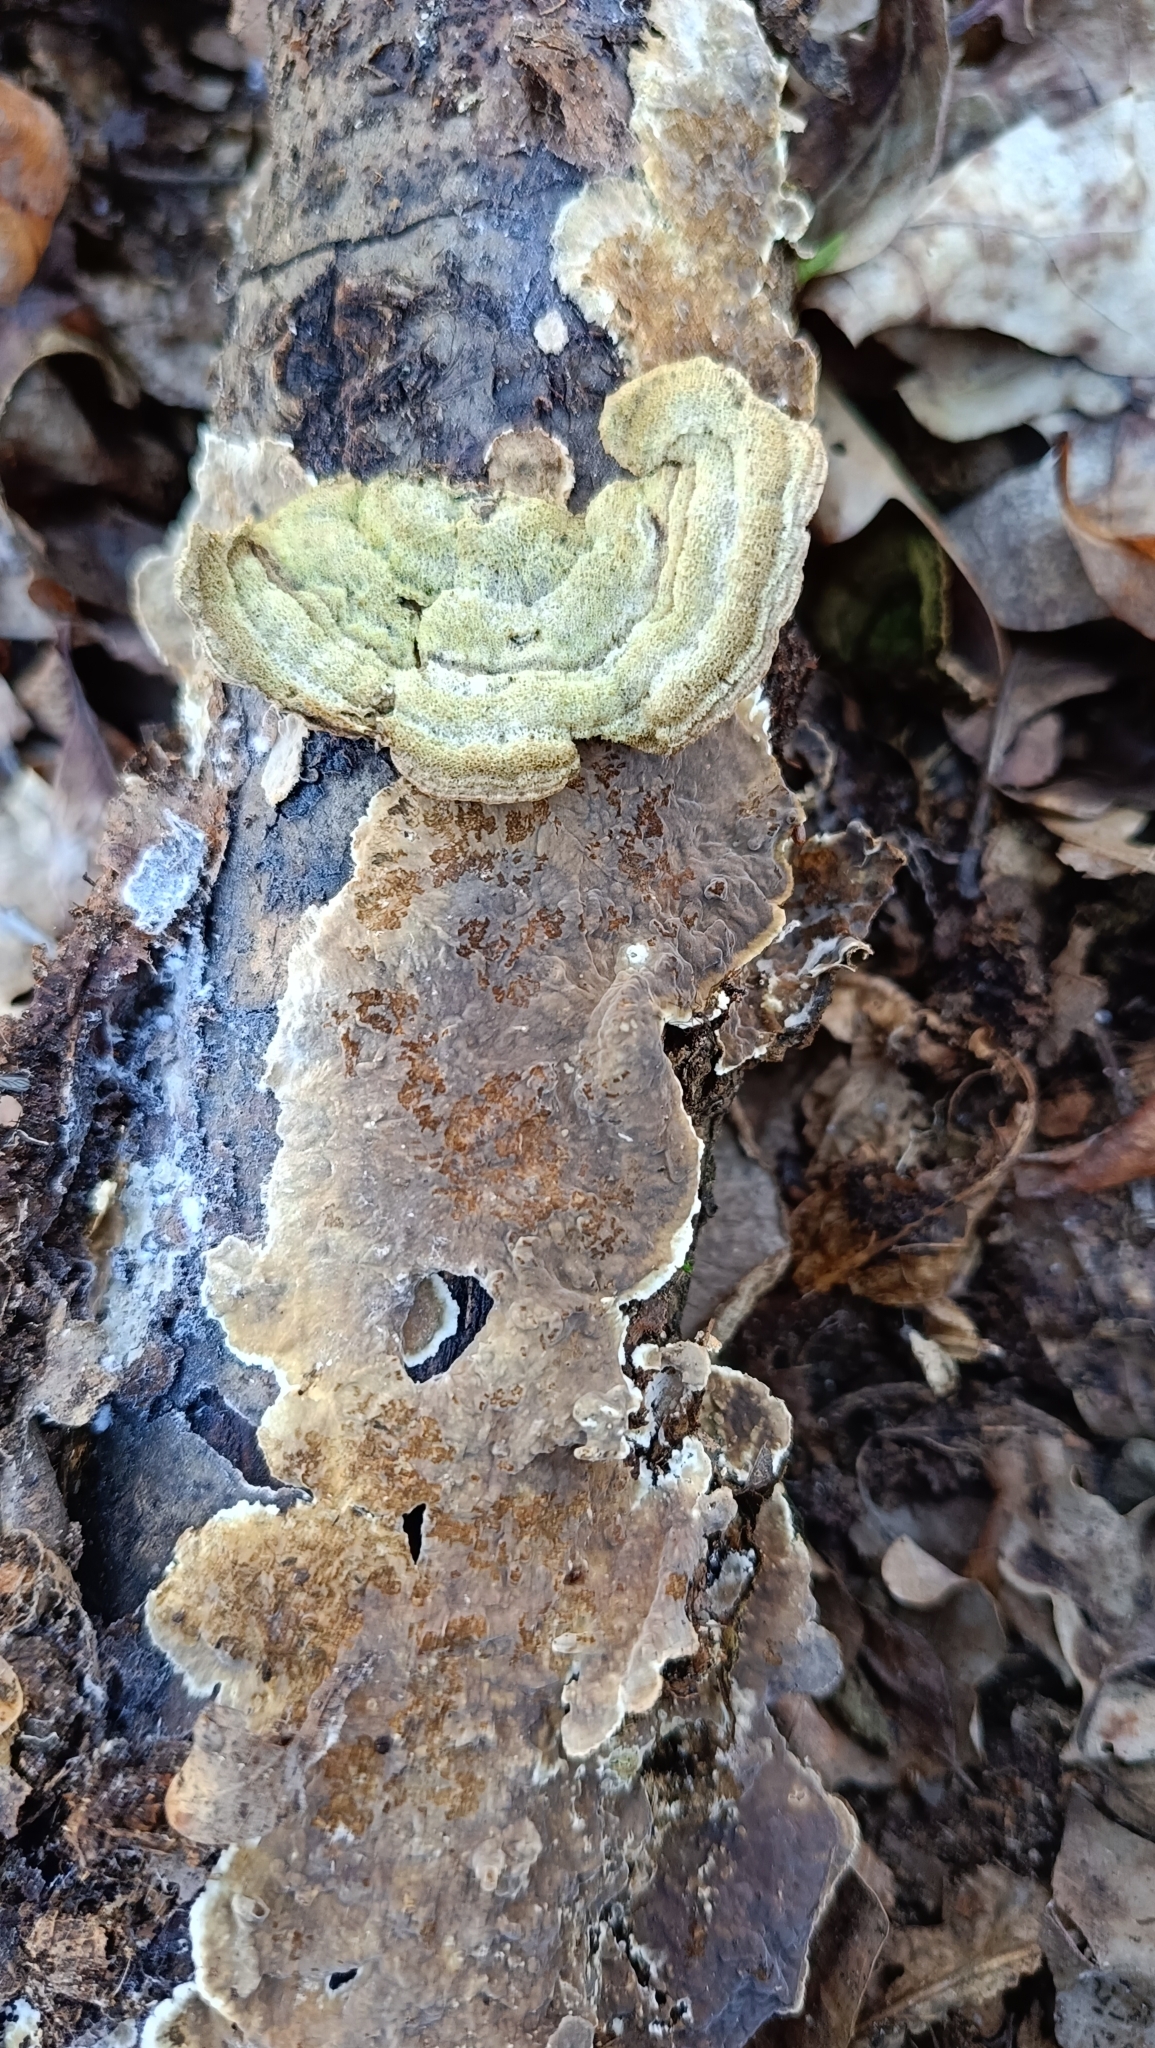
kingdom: Fungi
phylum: Basidiomycota
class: Agaricomycetes
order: Polyporales
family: Phanerochaetaceae
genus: Porostereum
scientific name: Porostereum spadiceum
